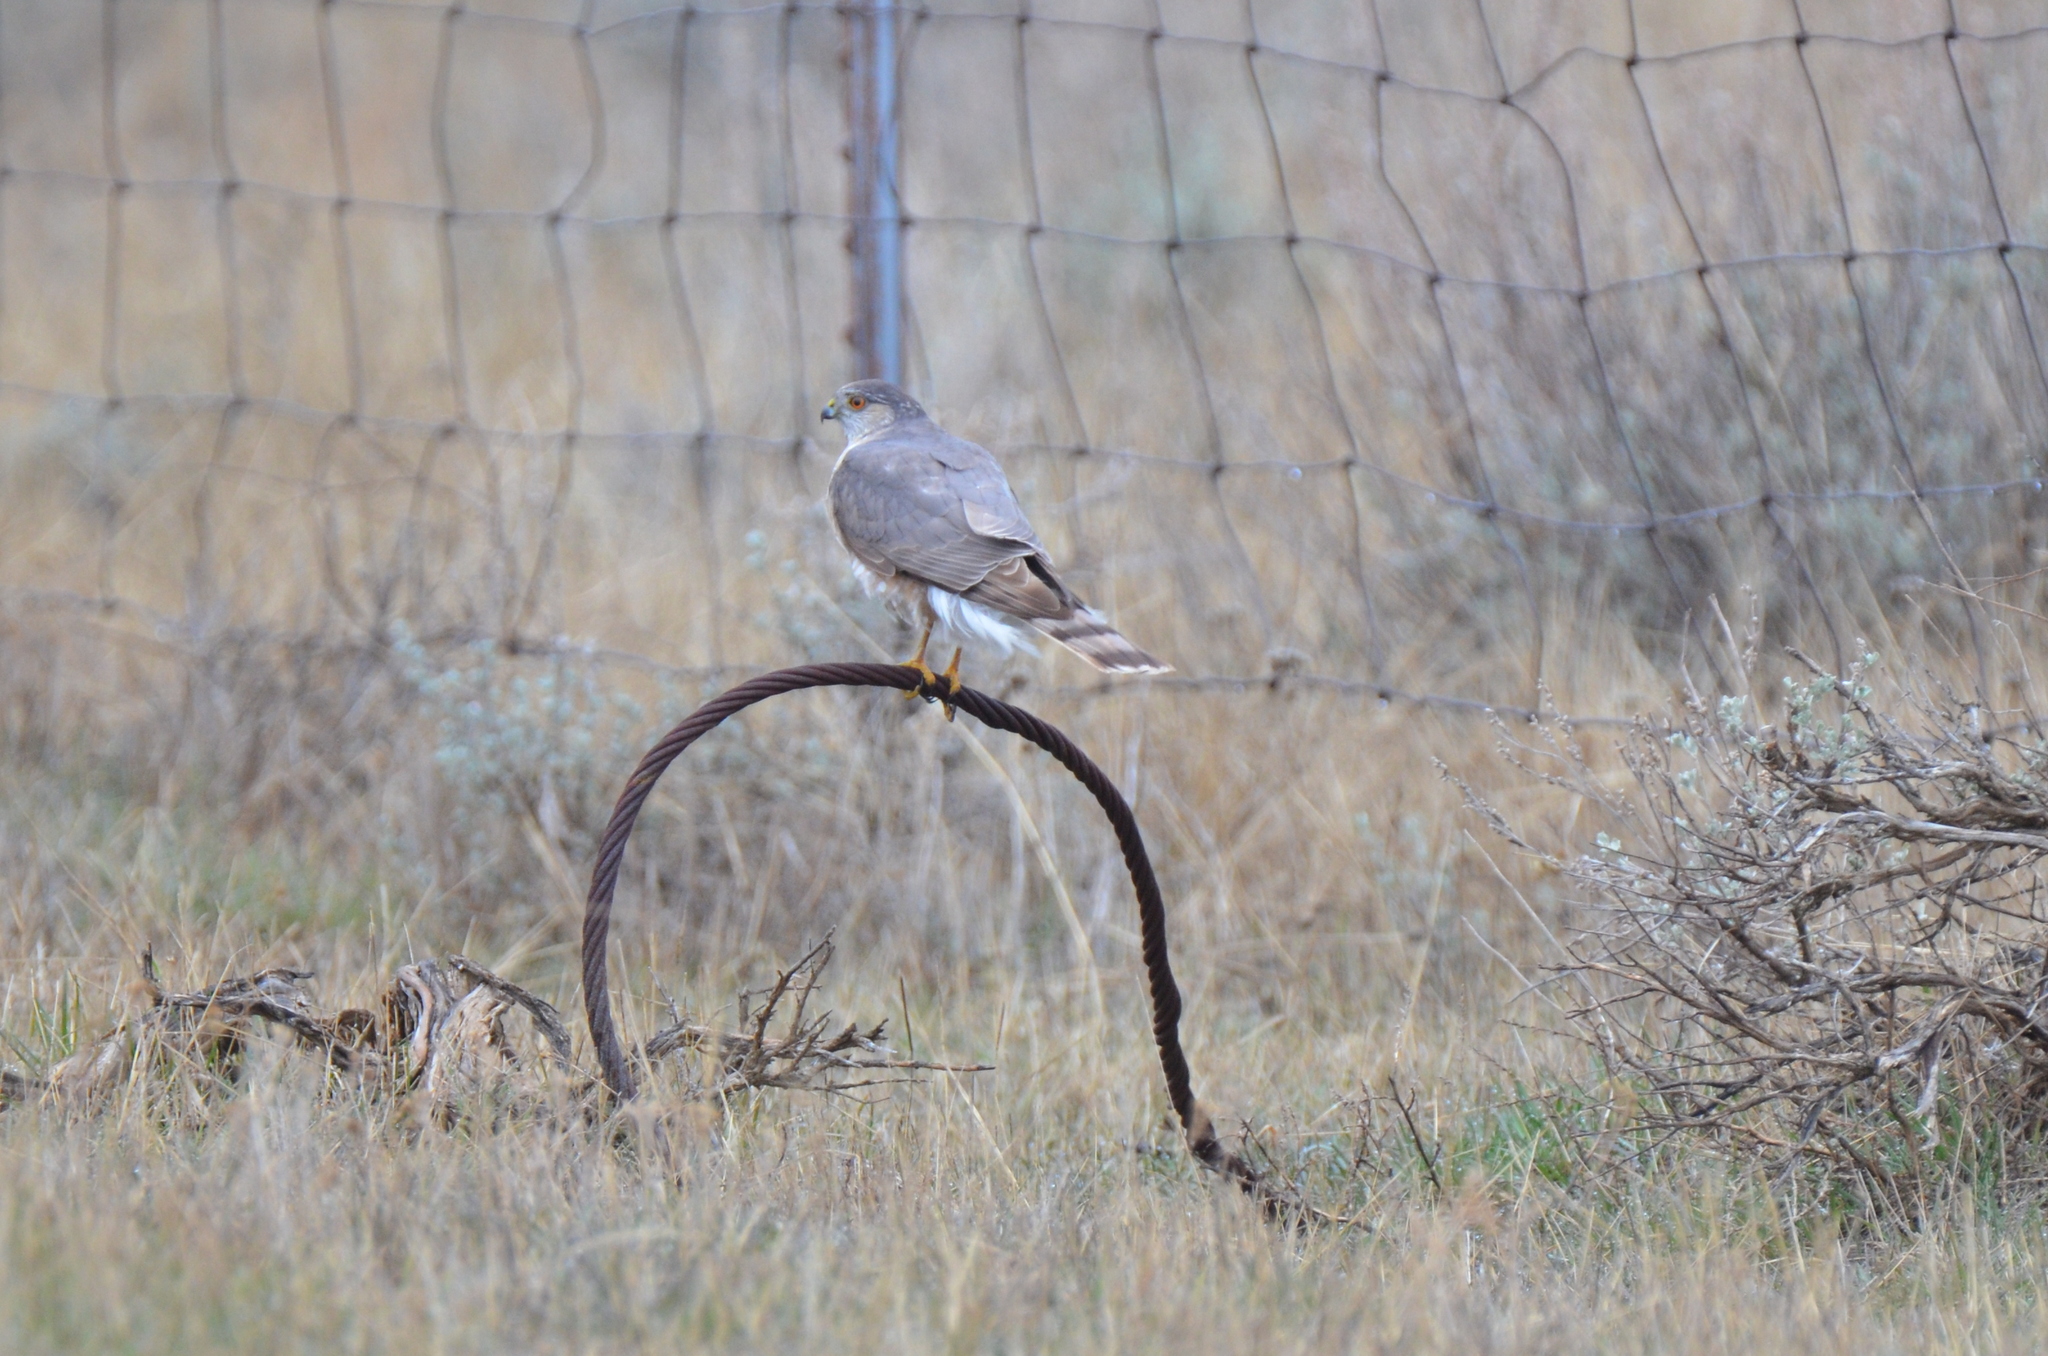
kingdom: Animalia
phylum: Chordata
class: Aves
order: Accipitriformes
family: Accipitridae
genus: Accipiter
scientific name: Accipiter striatus
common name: Sharp-shinned hawk
